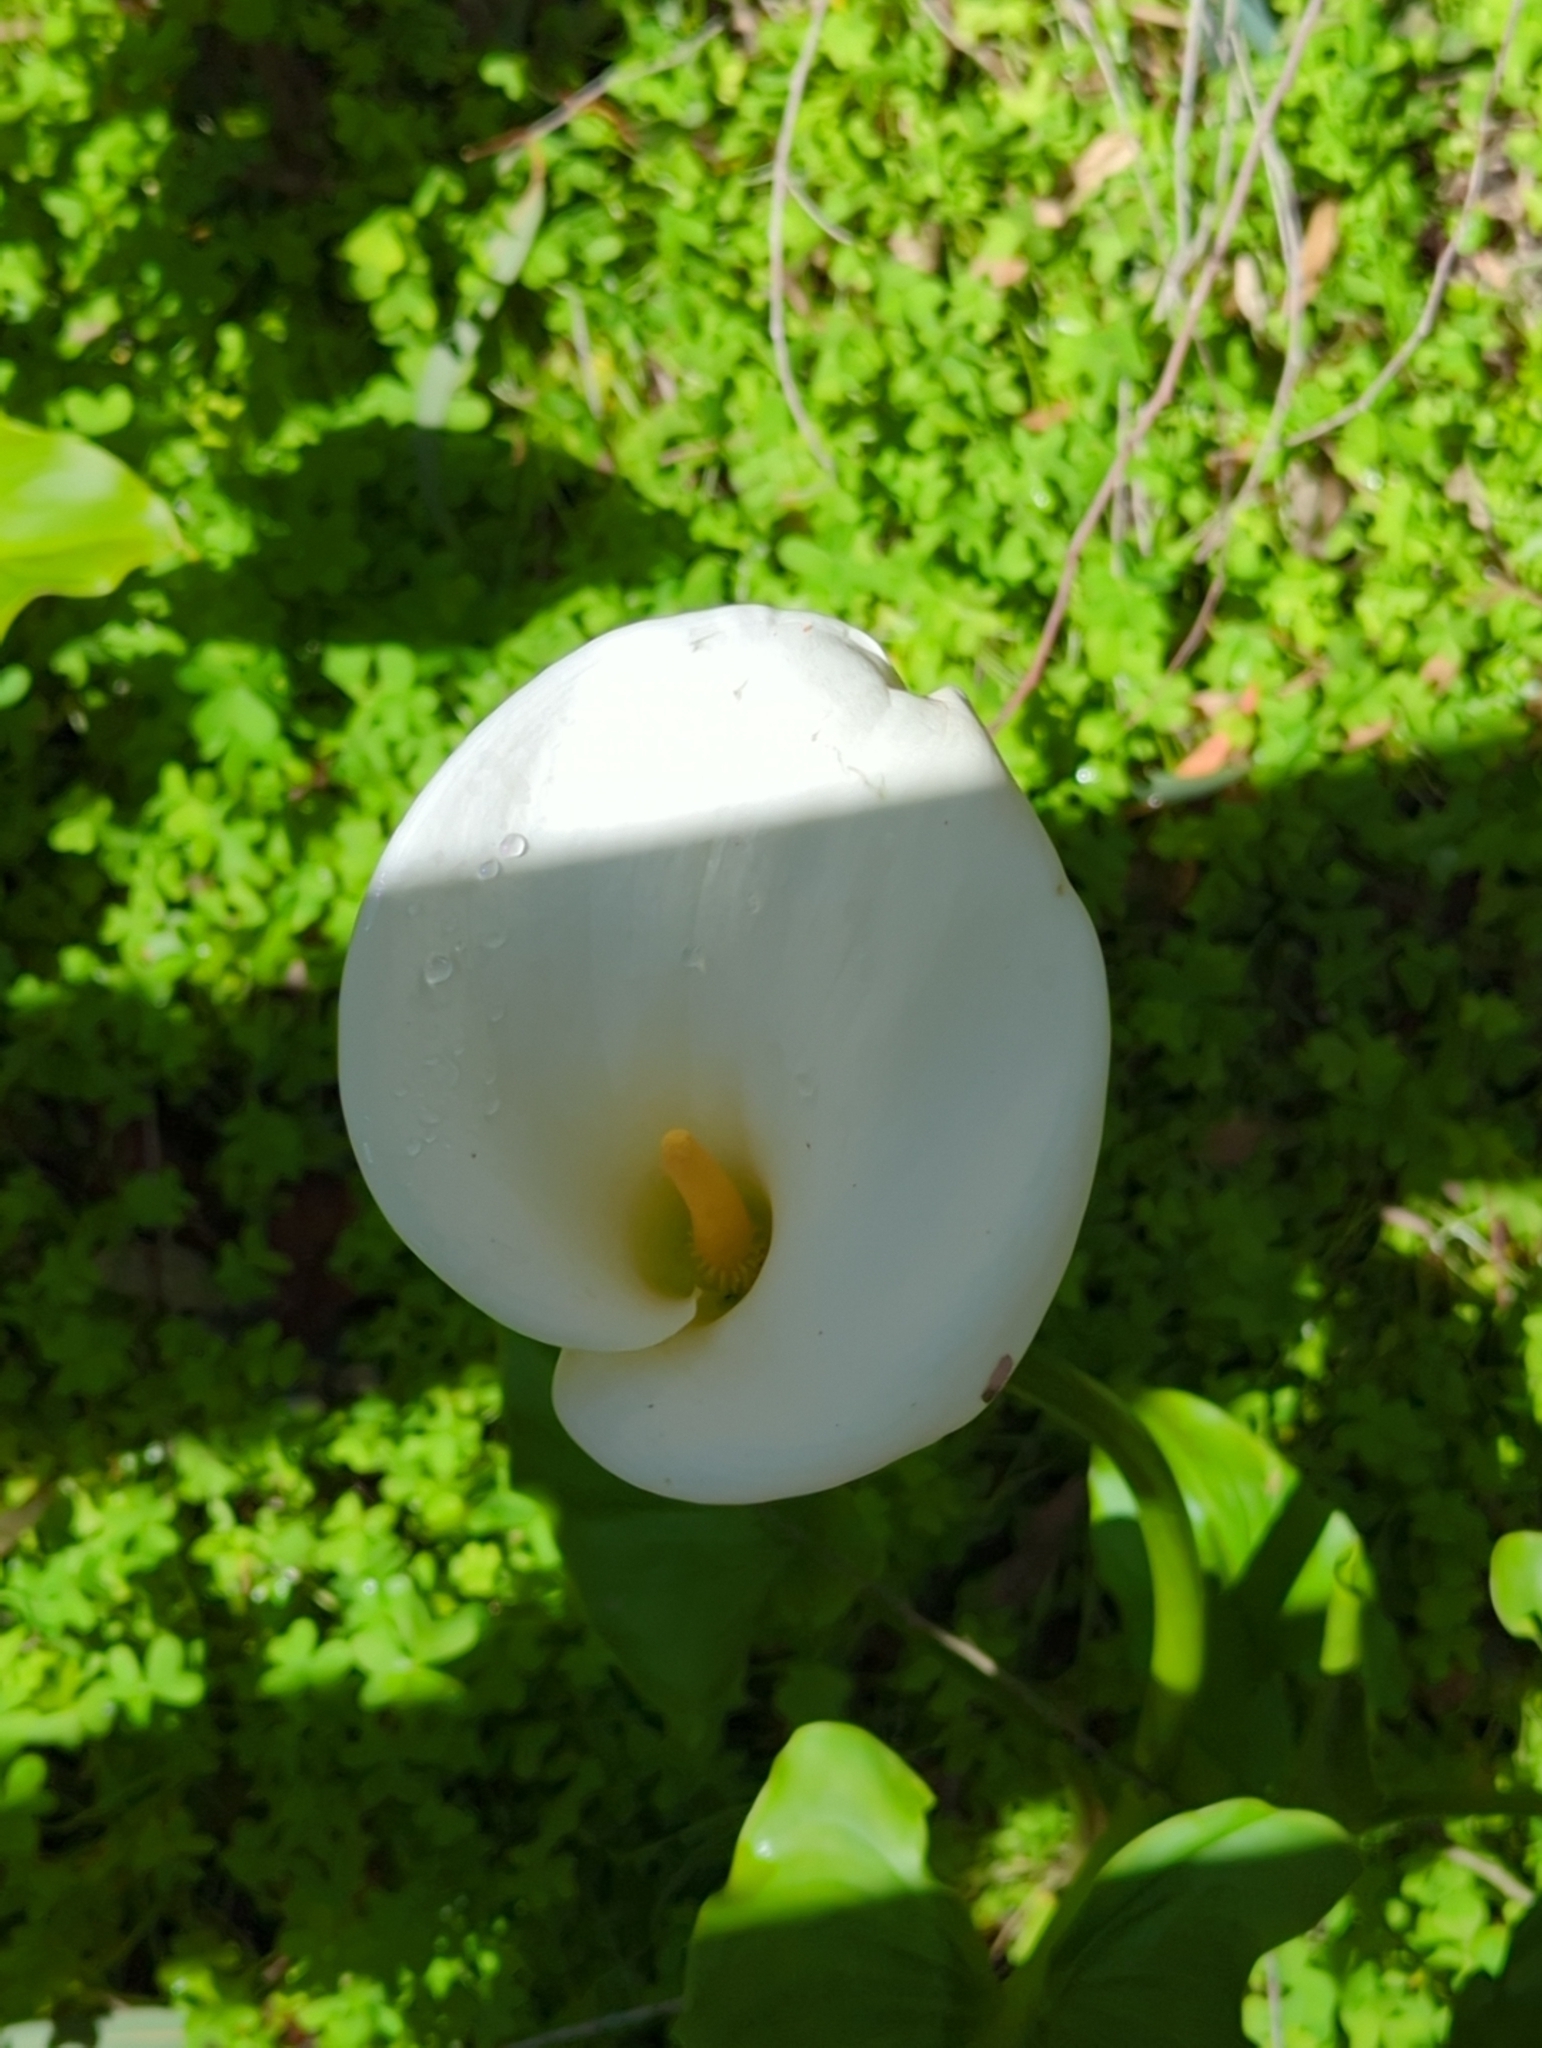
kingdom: Plantae
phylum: Tracheophyta
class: Liliopsida
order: Alismatales
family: Araceae
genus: Zantedeschia
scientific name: Zantedeschia aethiopica
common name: Altar-lily
